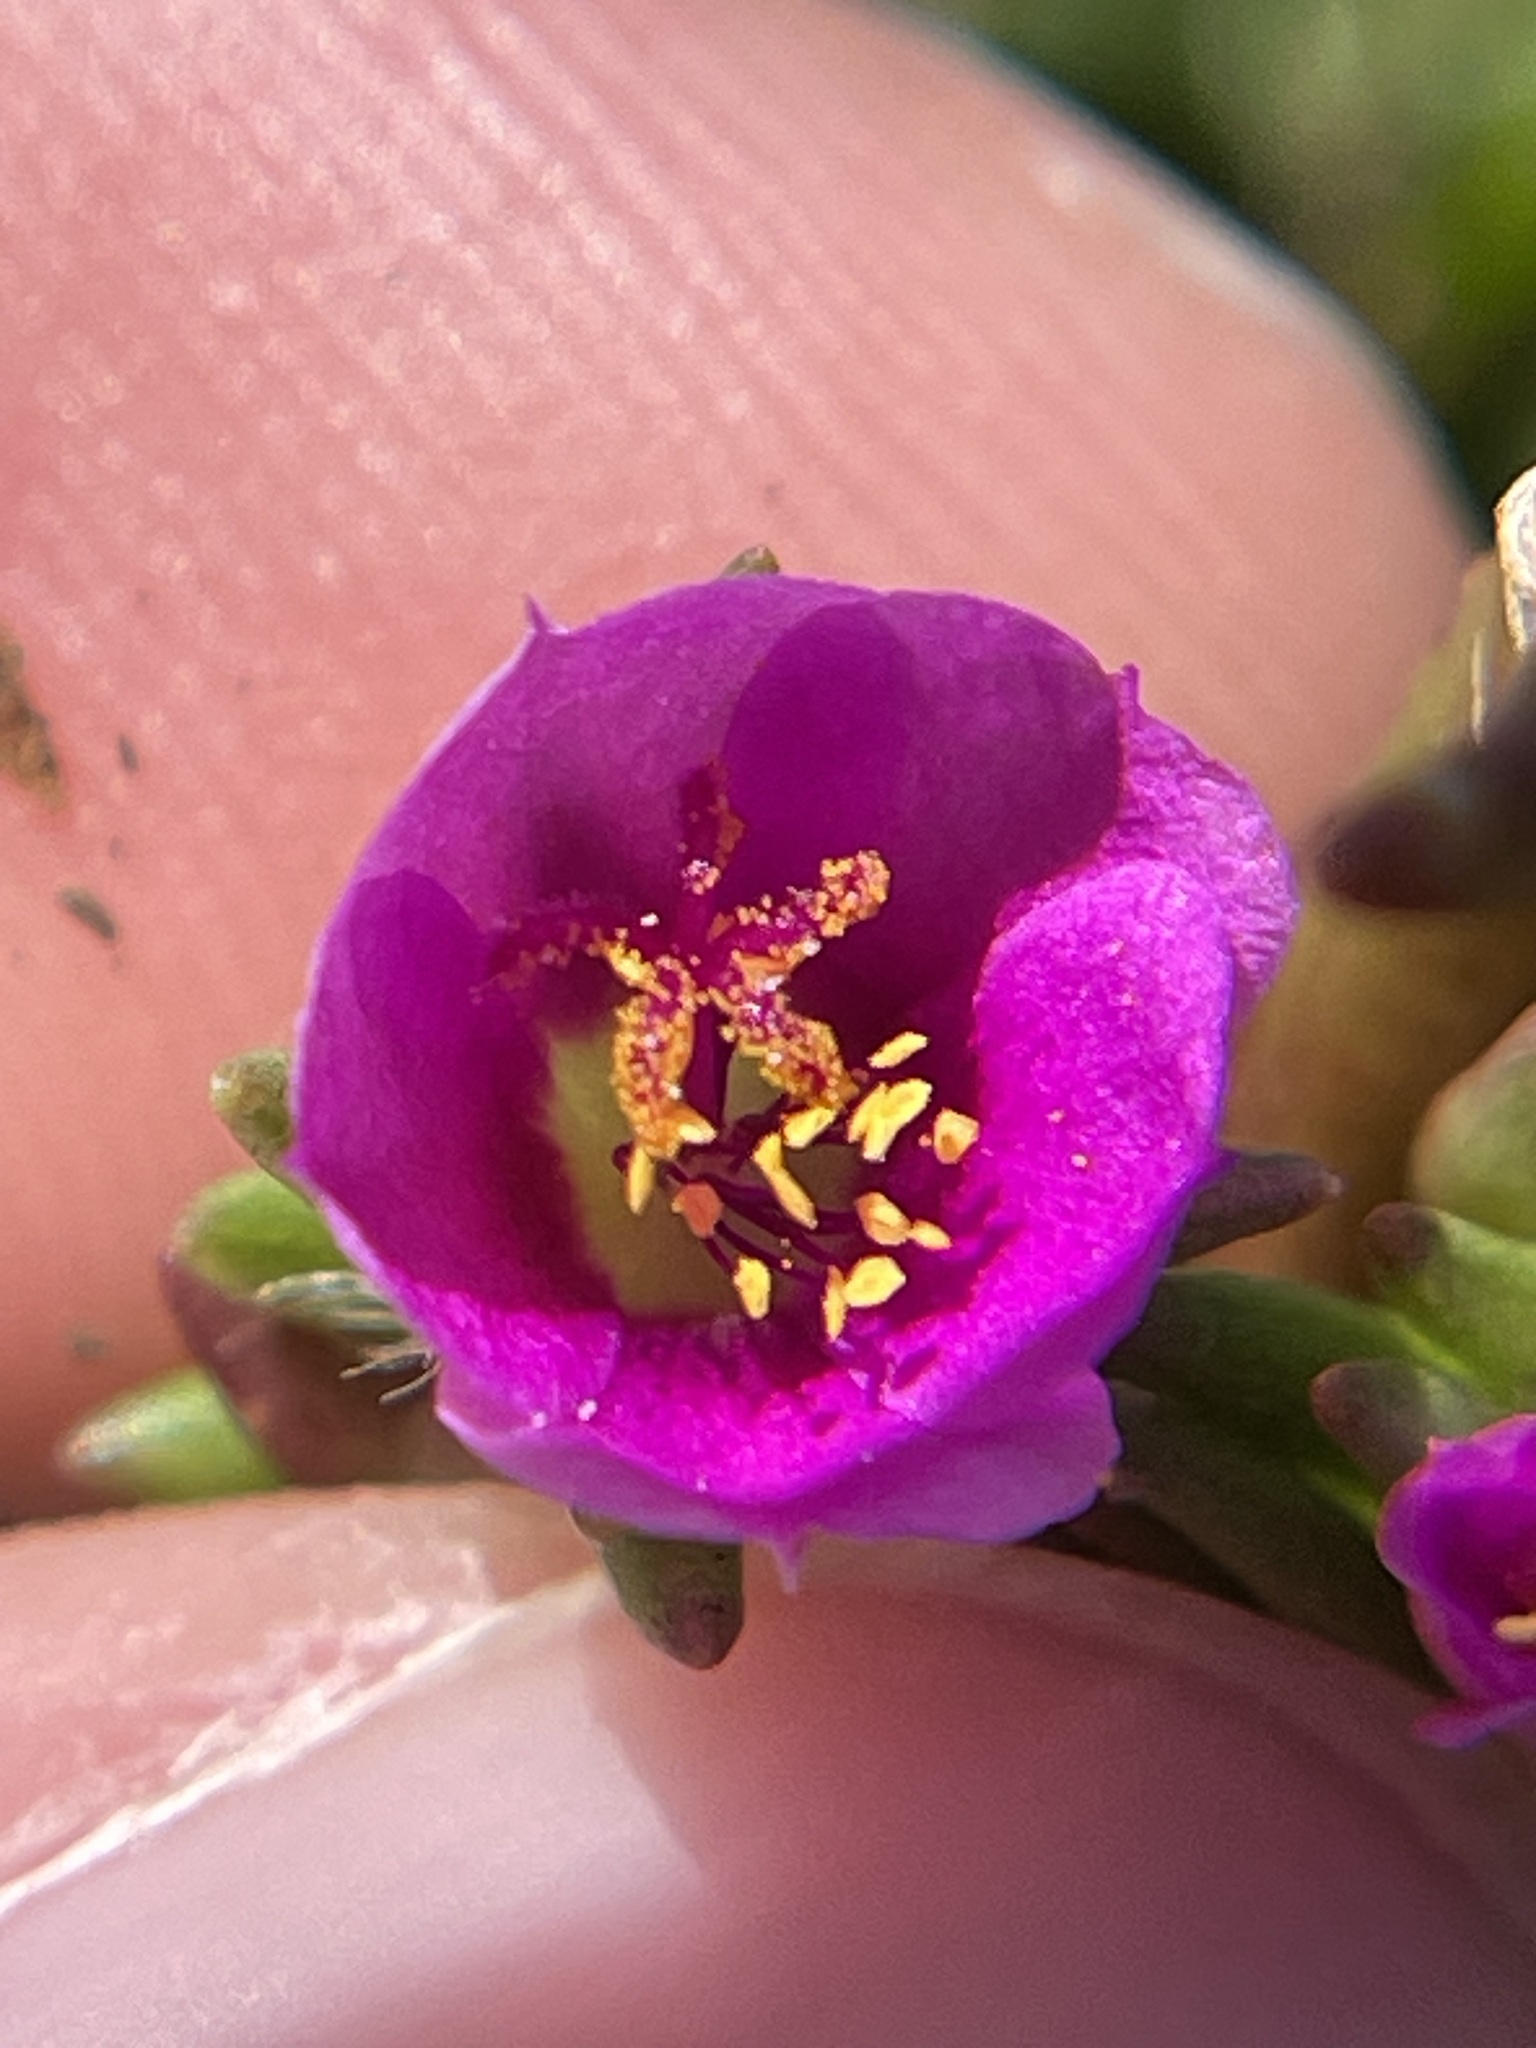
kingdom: Plantae
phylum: Tracheophyta
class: Magnoliopsida
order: Caryophyllales
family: Portulacaceae
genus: Portulaca
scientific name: Portulaca pilosa
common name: Kiss me quick
